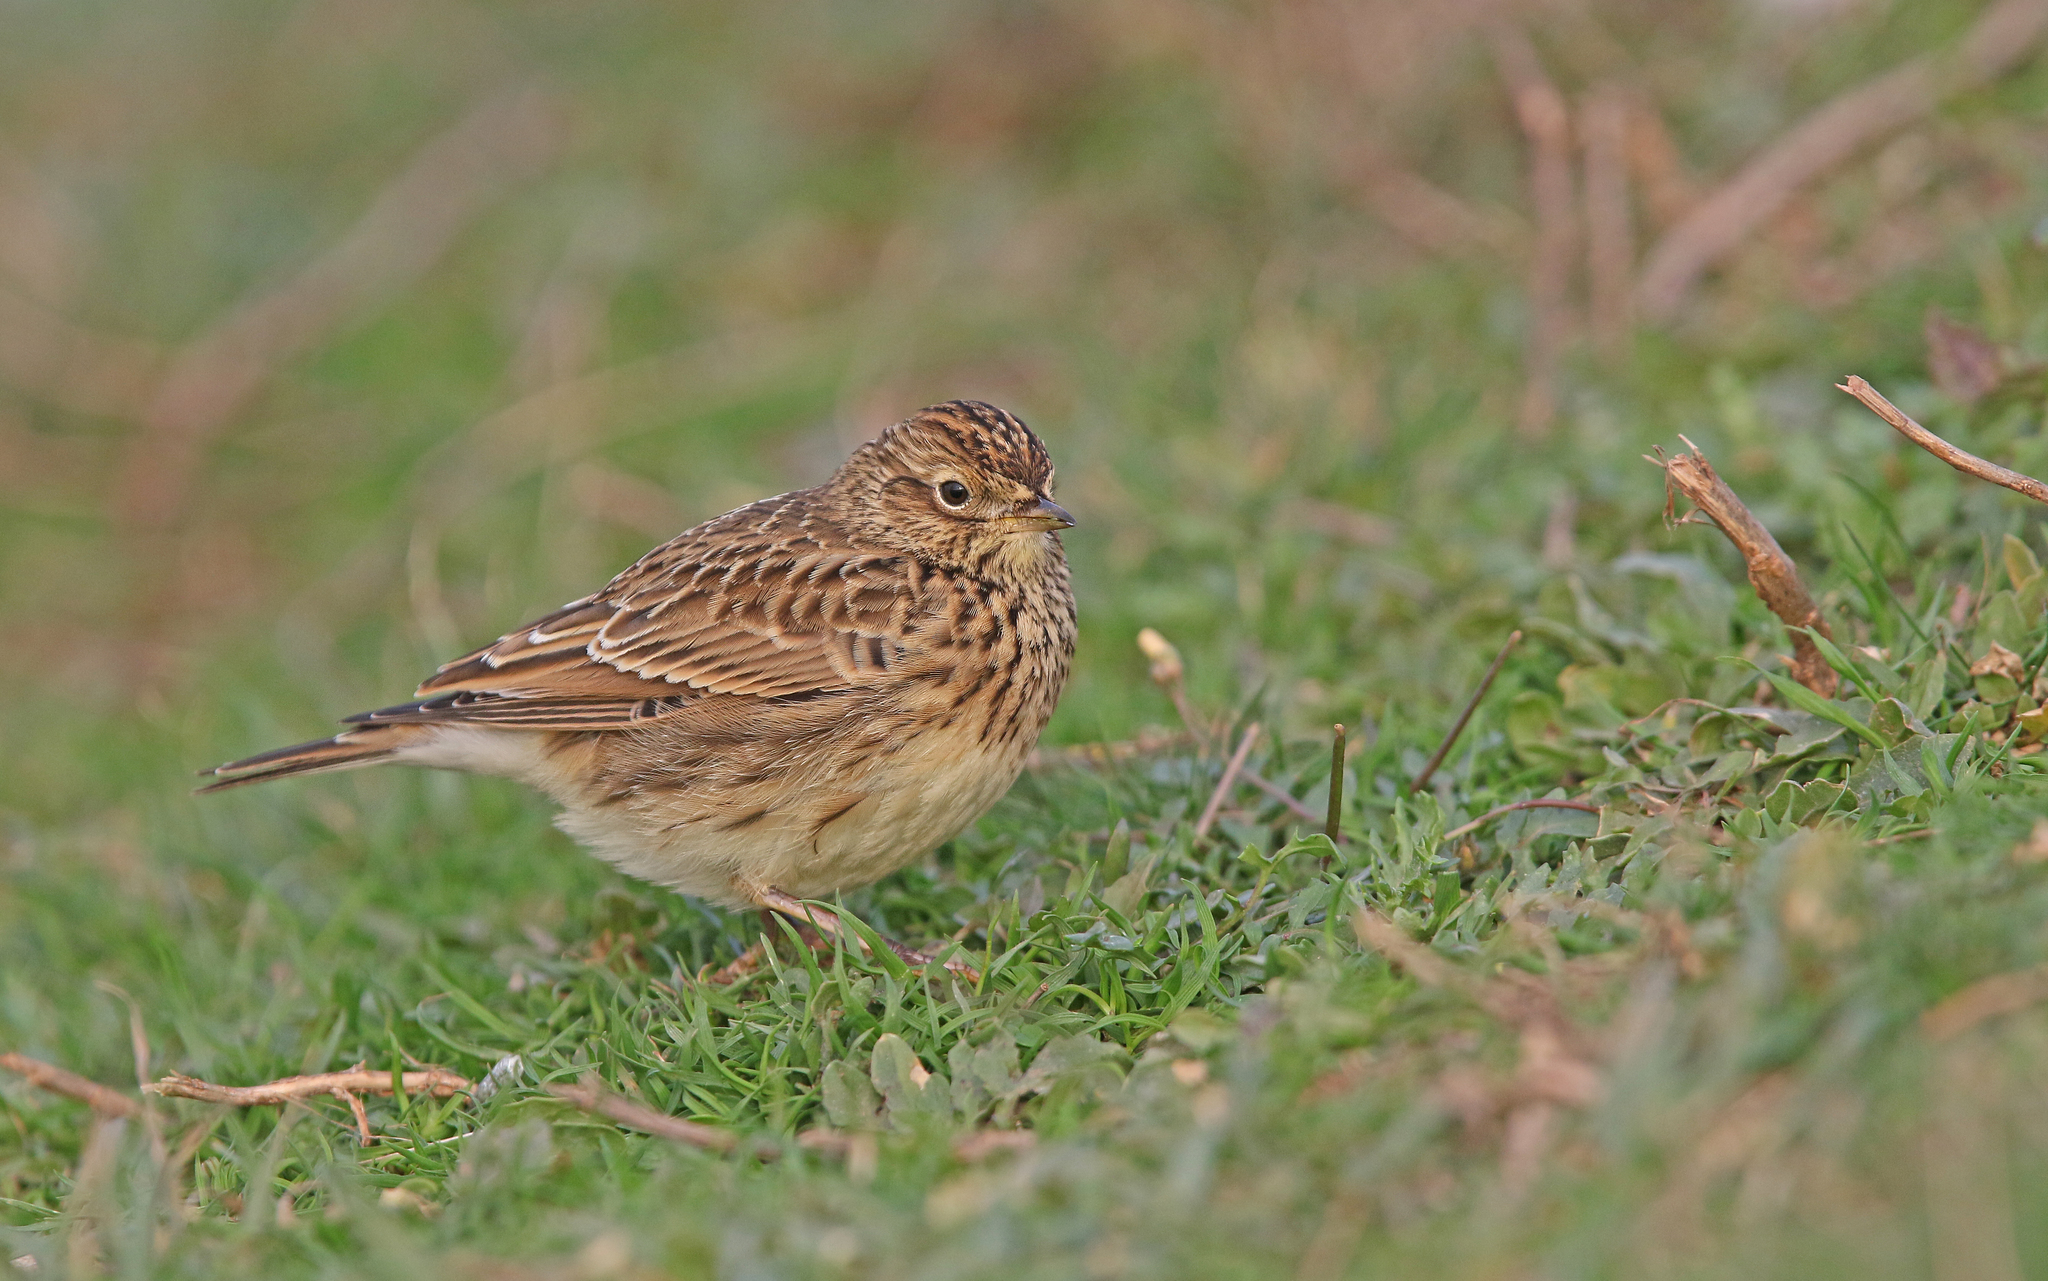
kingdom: Animalia
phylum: Chordata
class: Aves
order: Passeriformes
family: Alaudidae
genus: Alauda
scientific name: Alauda arvensis
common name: Eurasian skylark
